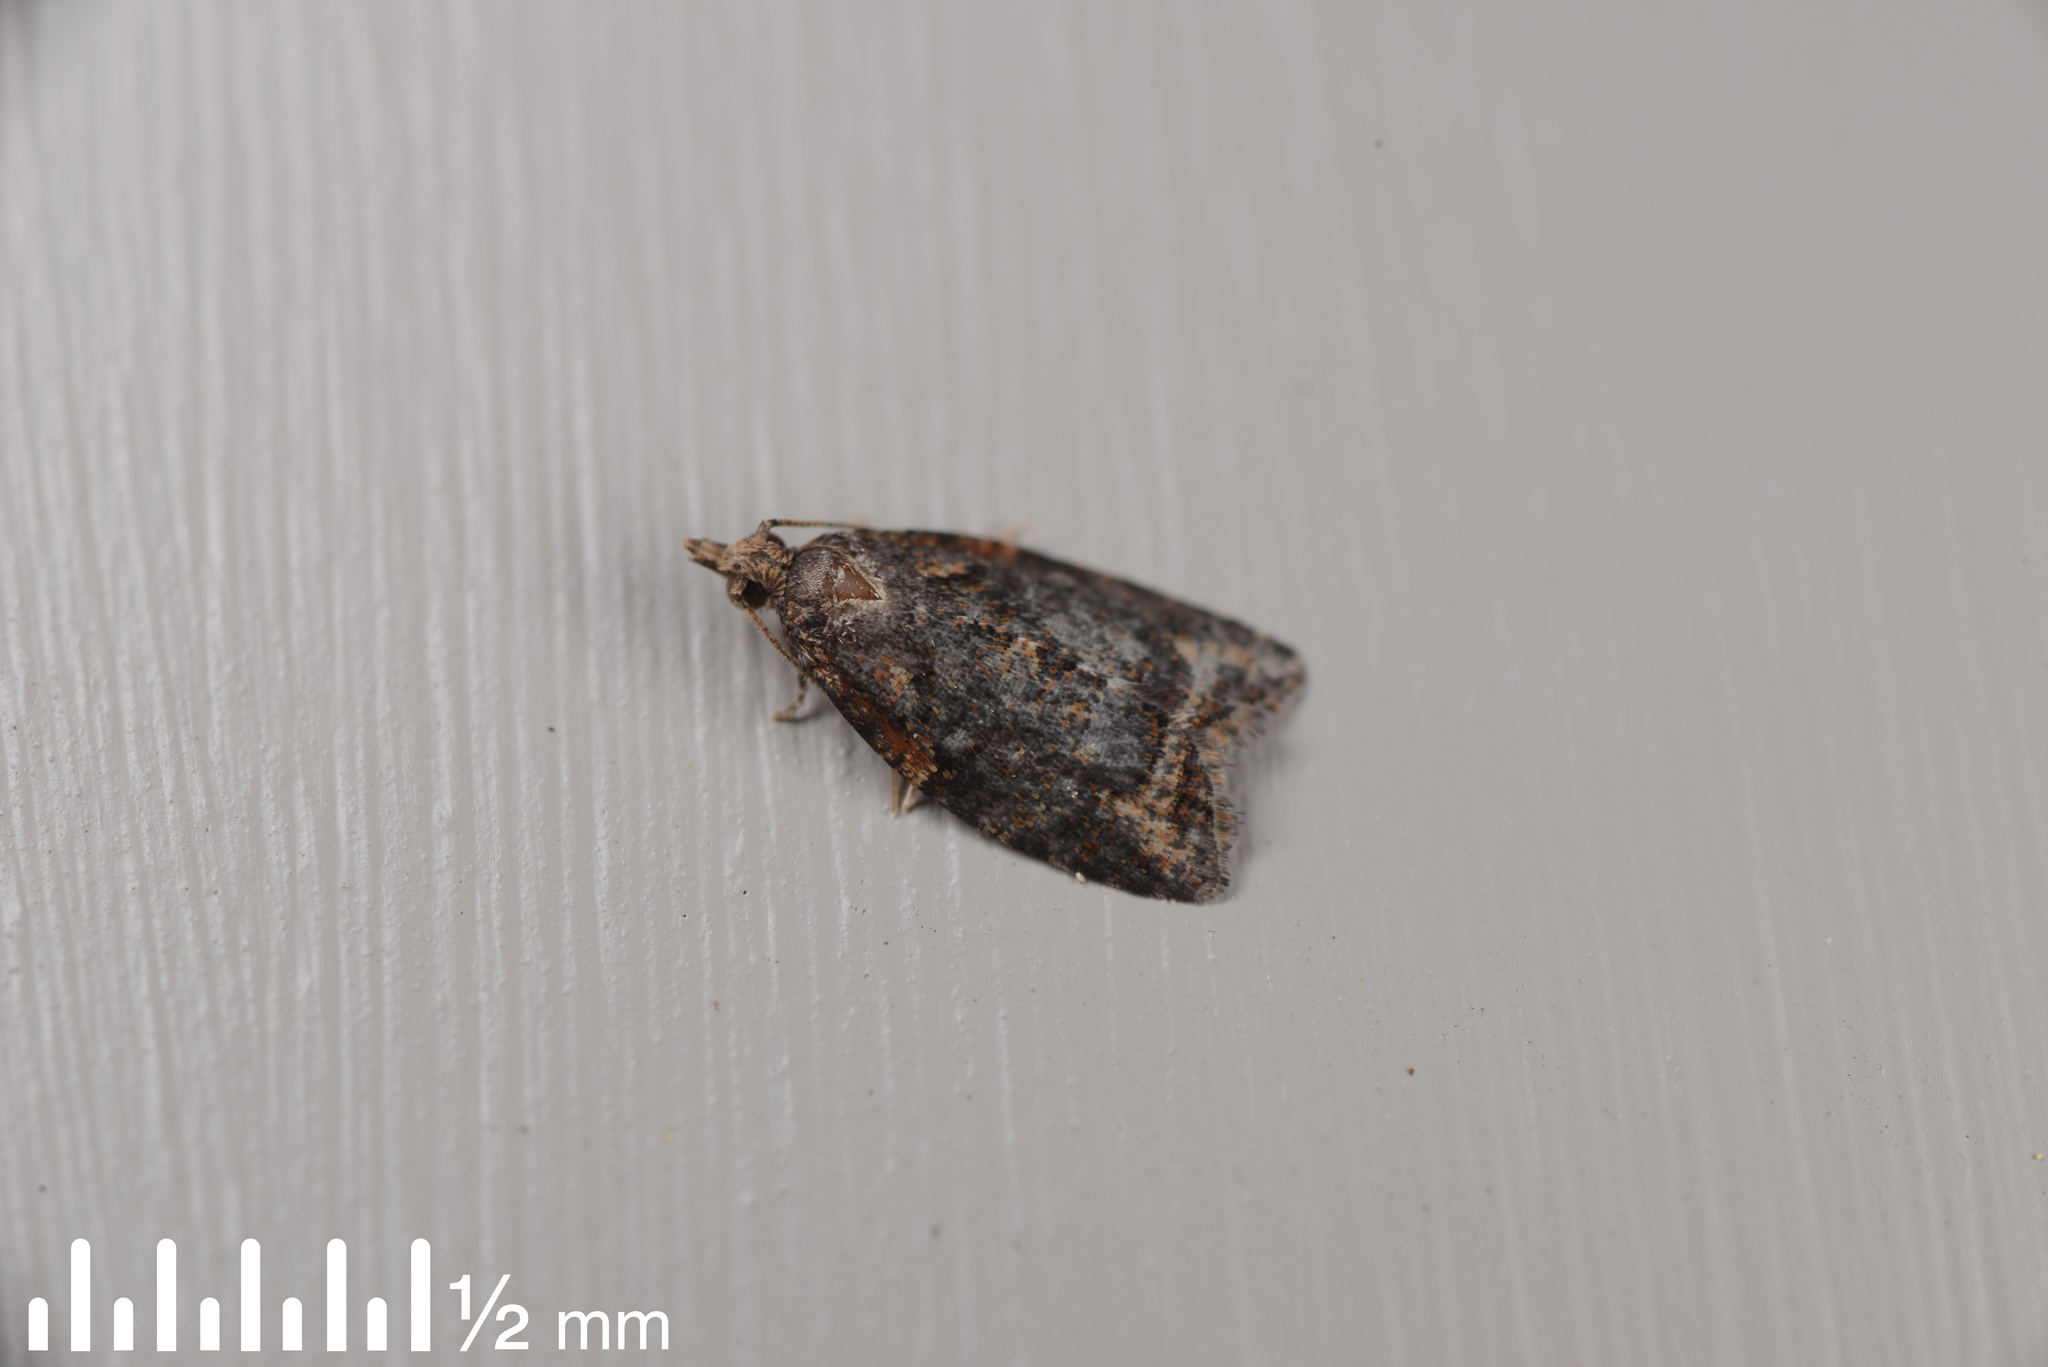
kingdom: Animalia
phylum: Arthropoda
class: Insecta
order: Lepidoptera
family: Tortricidae
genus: Capua
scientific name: Capua intractana
